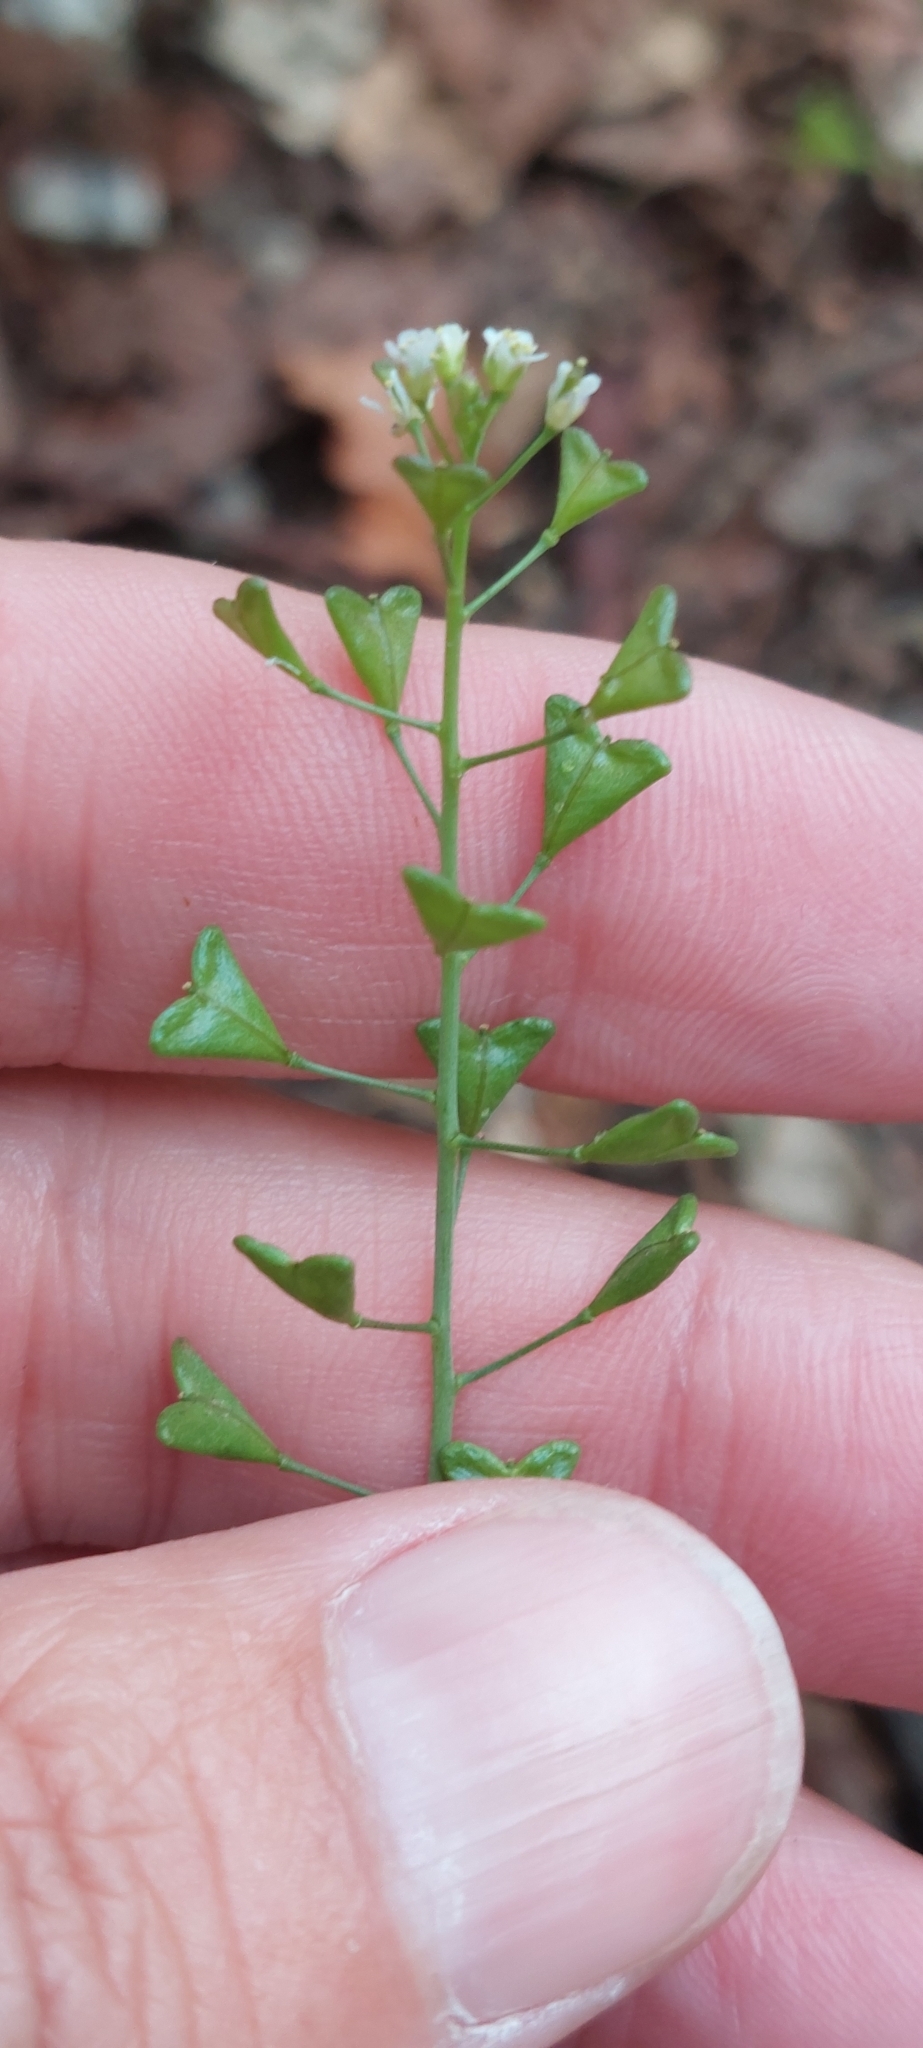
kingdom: Plantae
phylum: Tracheophyta
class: Magnoliopsida
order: Brassicales
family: Brassicaceae
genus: Capsella
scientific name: Capsella bursa-pastoris
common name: Shepherd's purse
